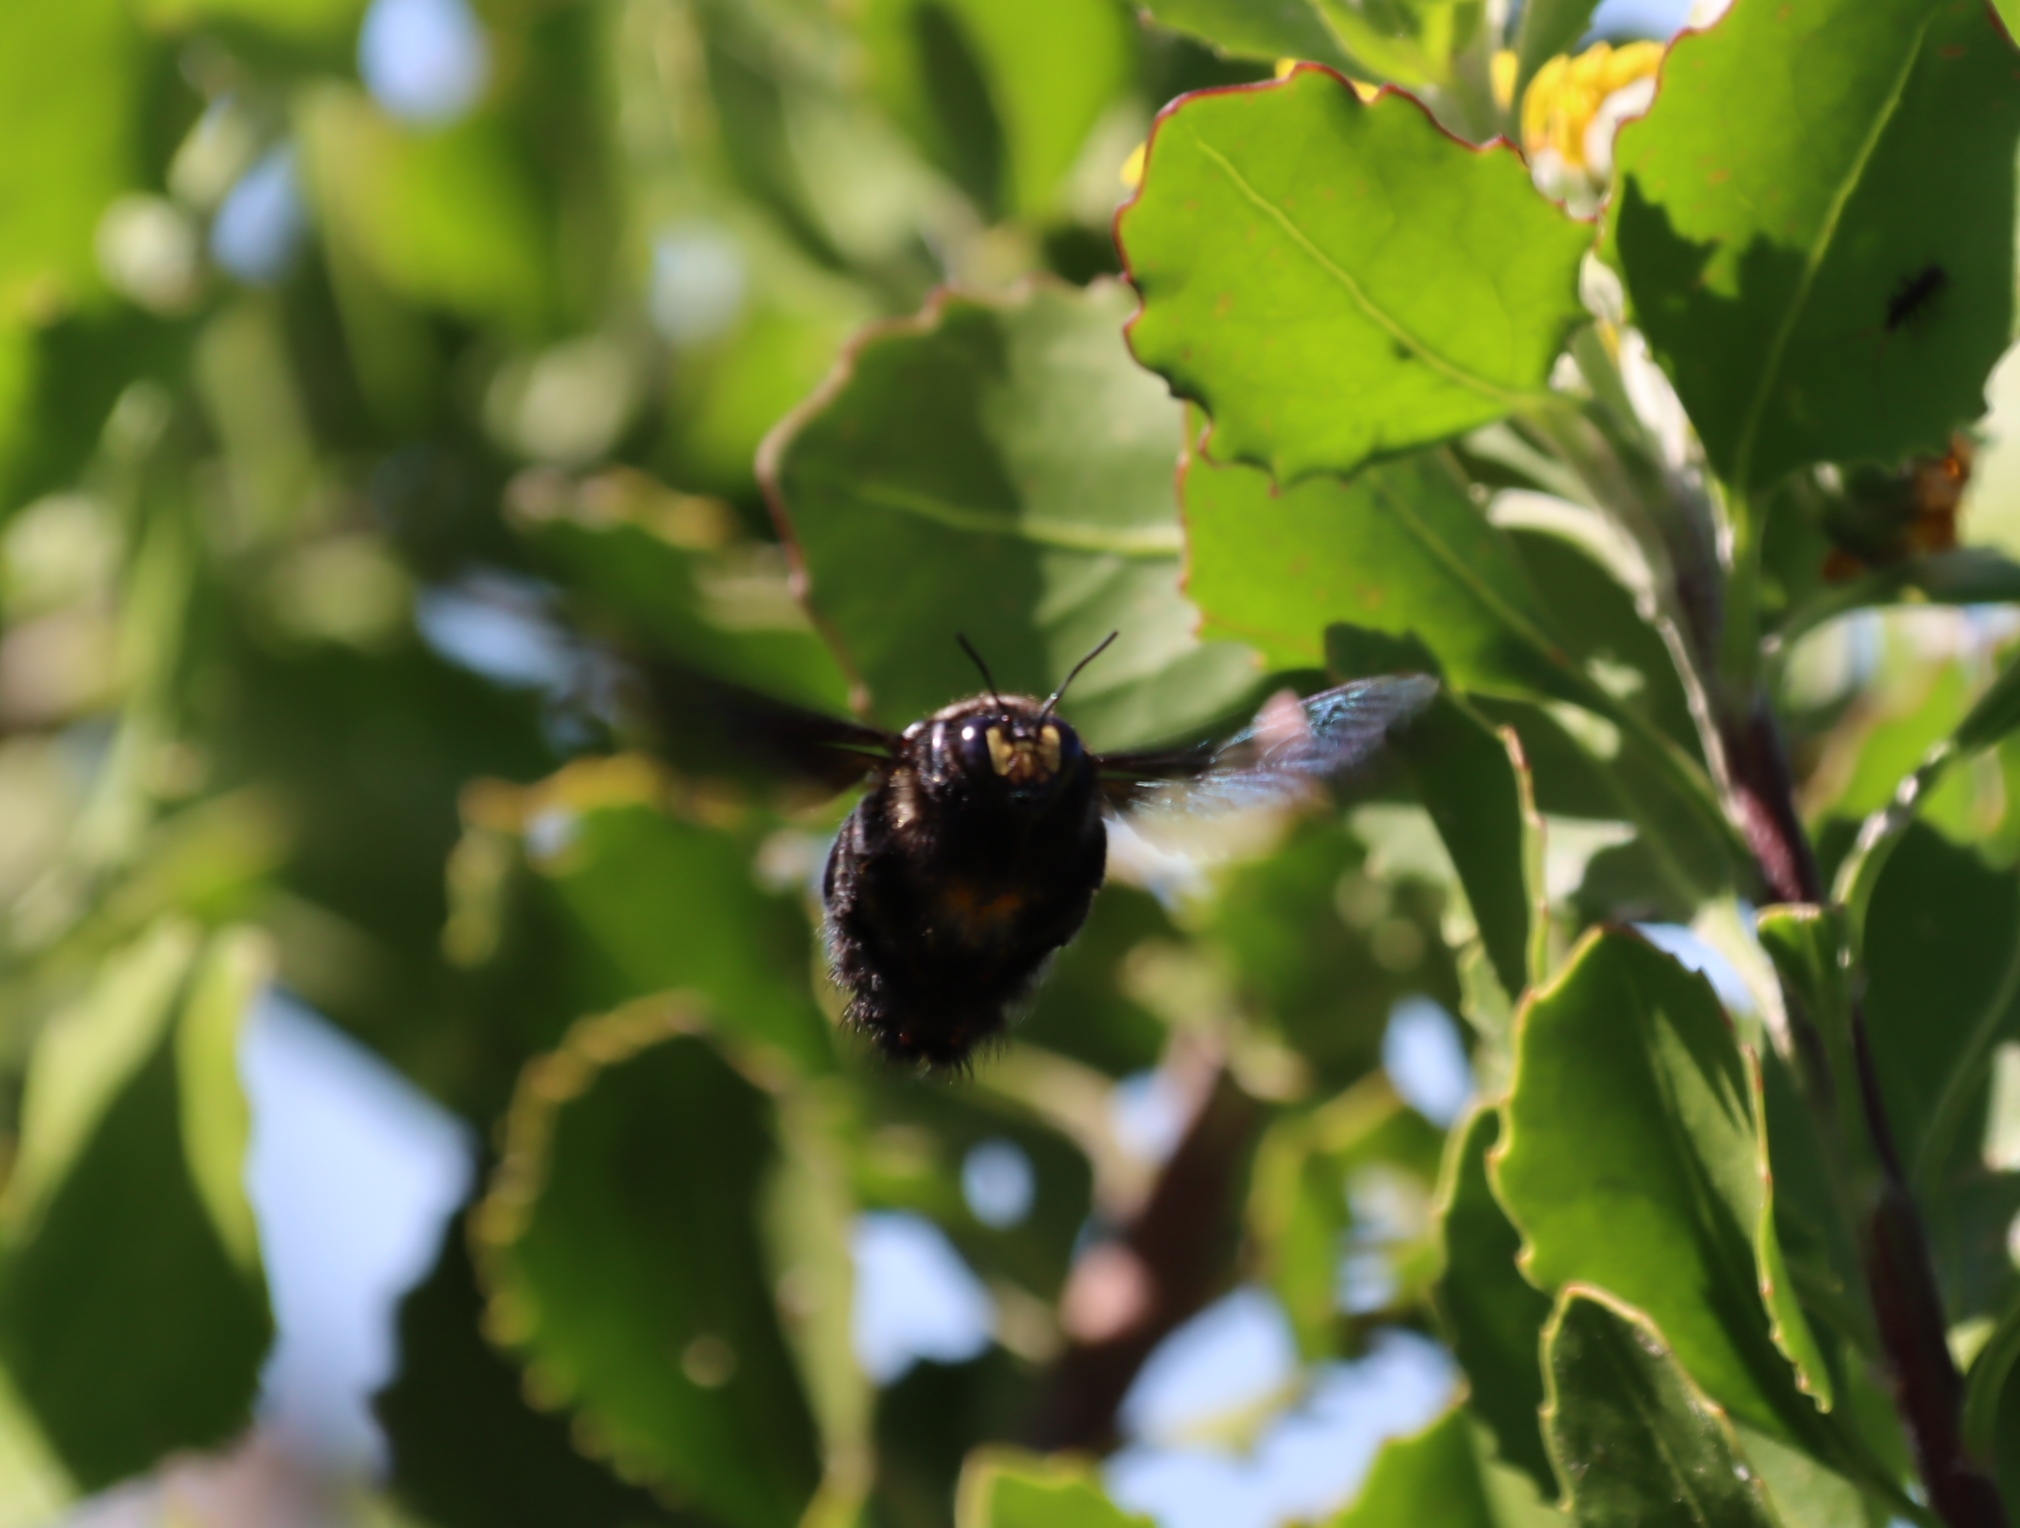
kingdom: Plantae
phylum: Tracheophyta
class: Magnoliopsida
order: Asterales
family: Asteraceae
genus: Osteospermum
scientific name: Osteospermum moniliferum
